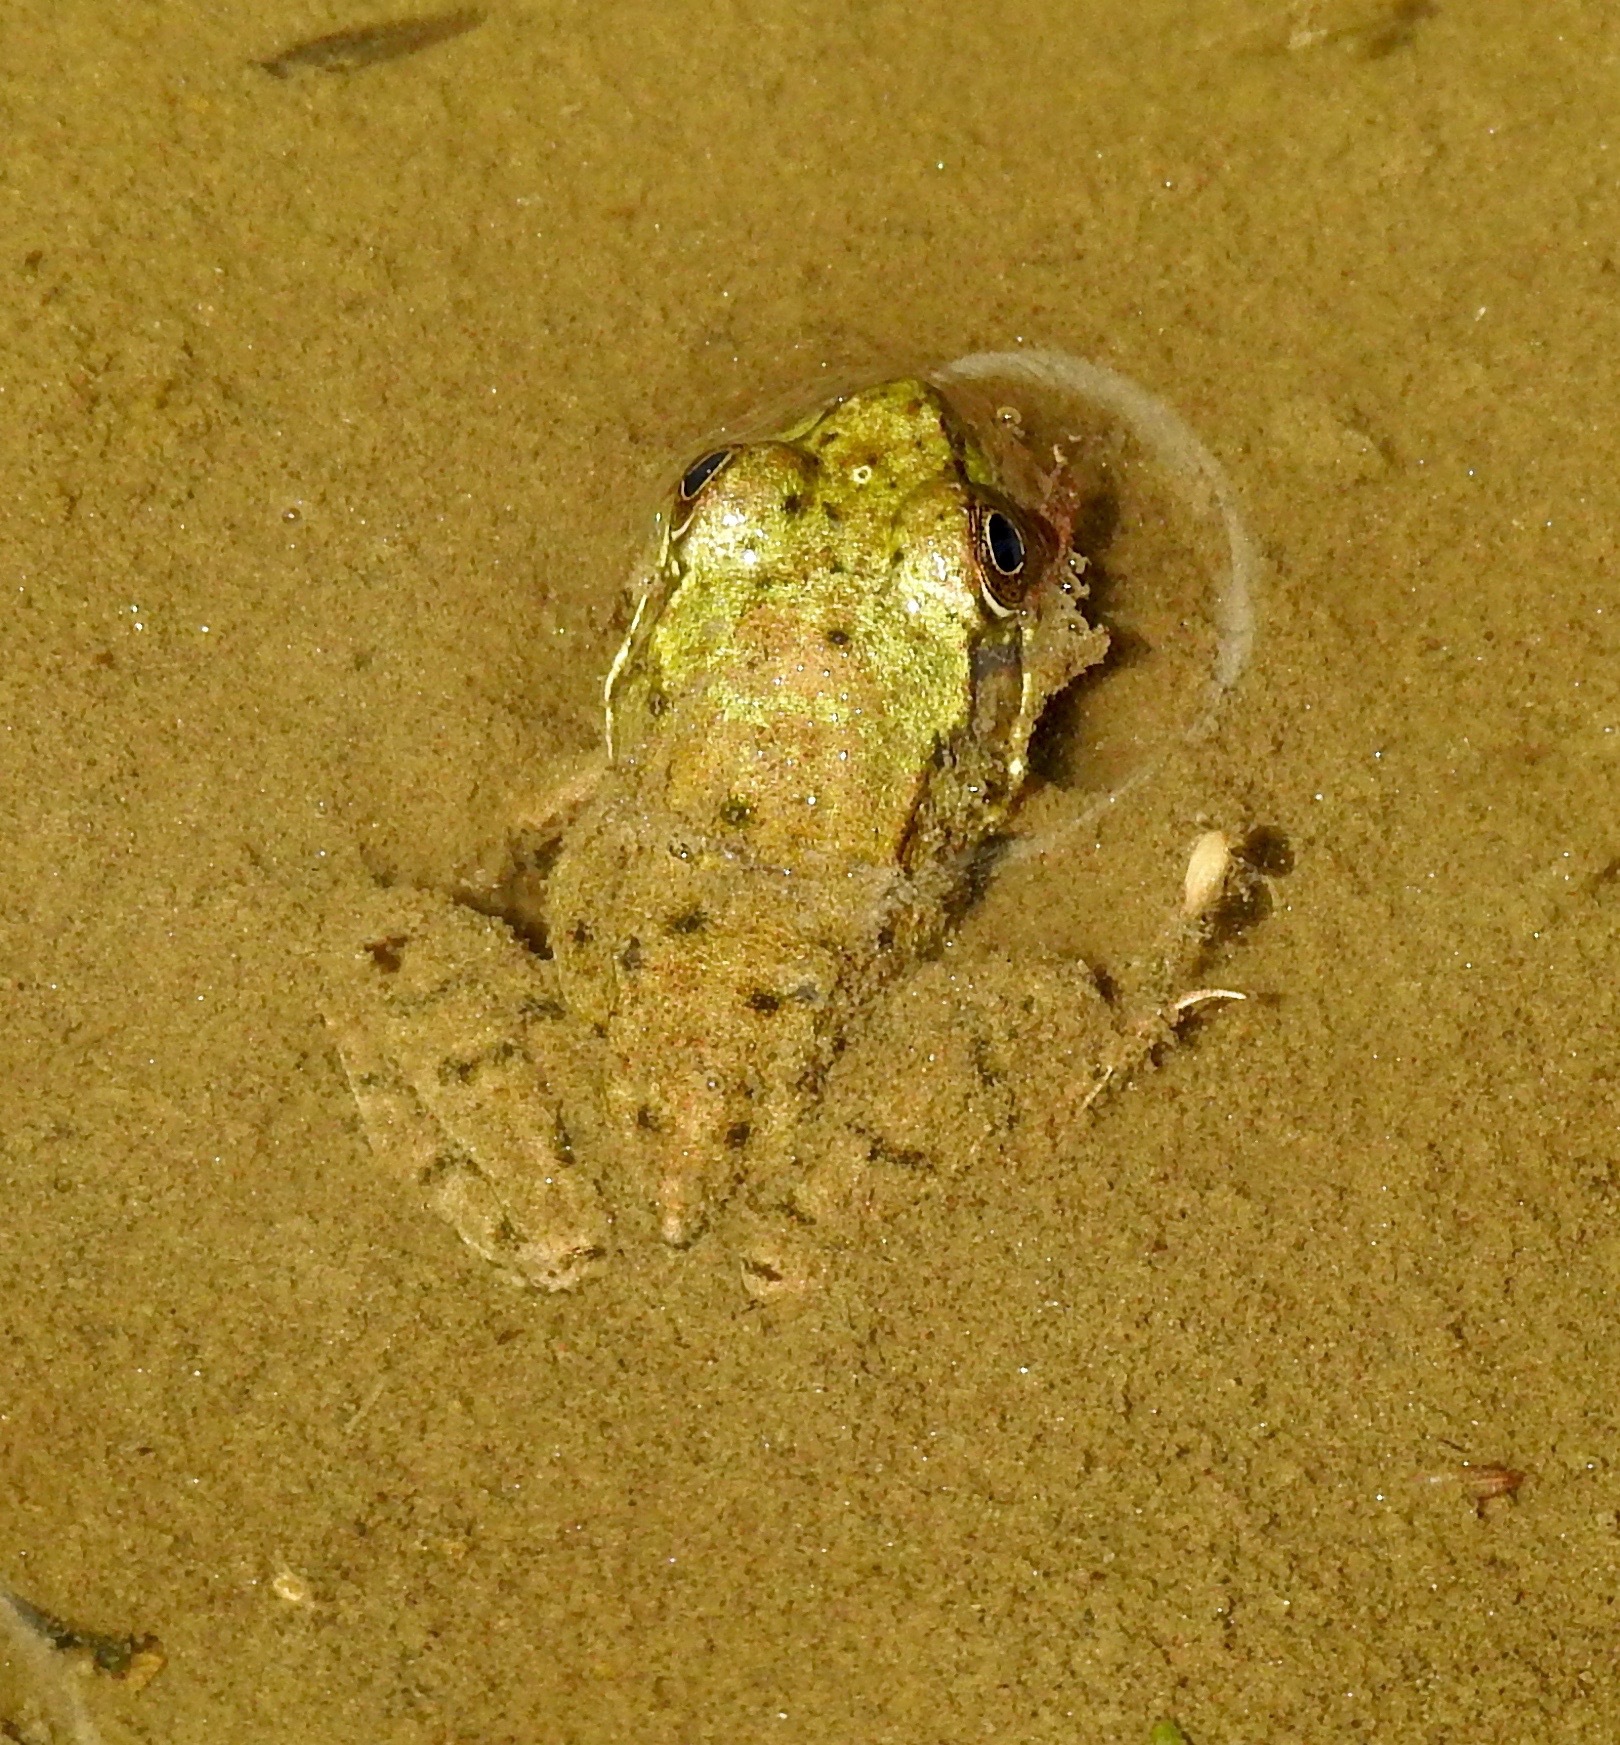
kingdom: Animalia
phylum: Chordata
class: Amphibia
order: Anura
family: Ranidae
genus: Lithobates
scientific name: Lithobates clamitans
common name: Green frog
